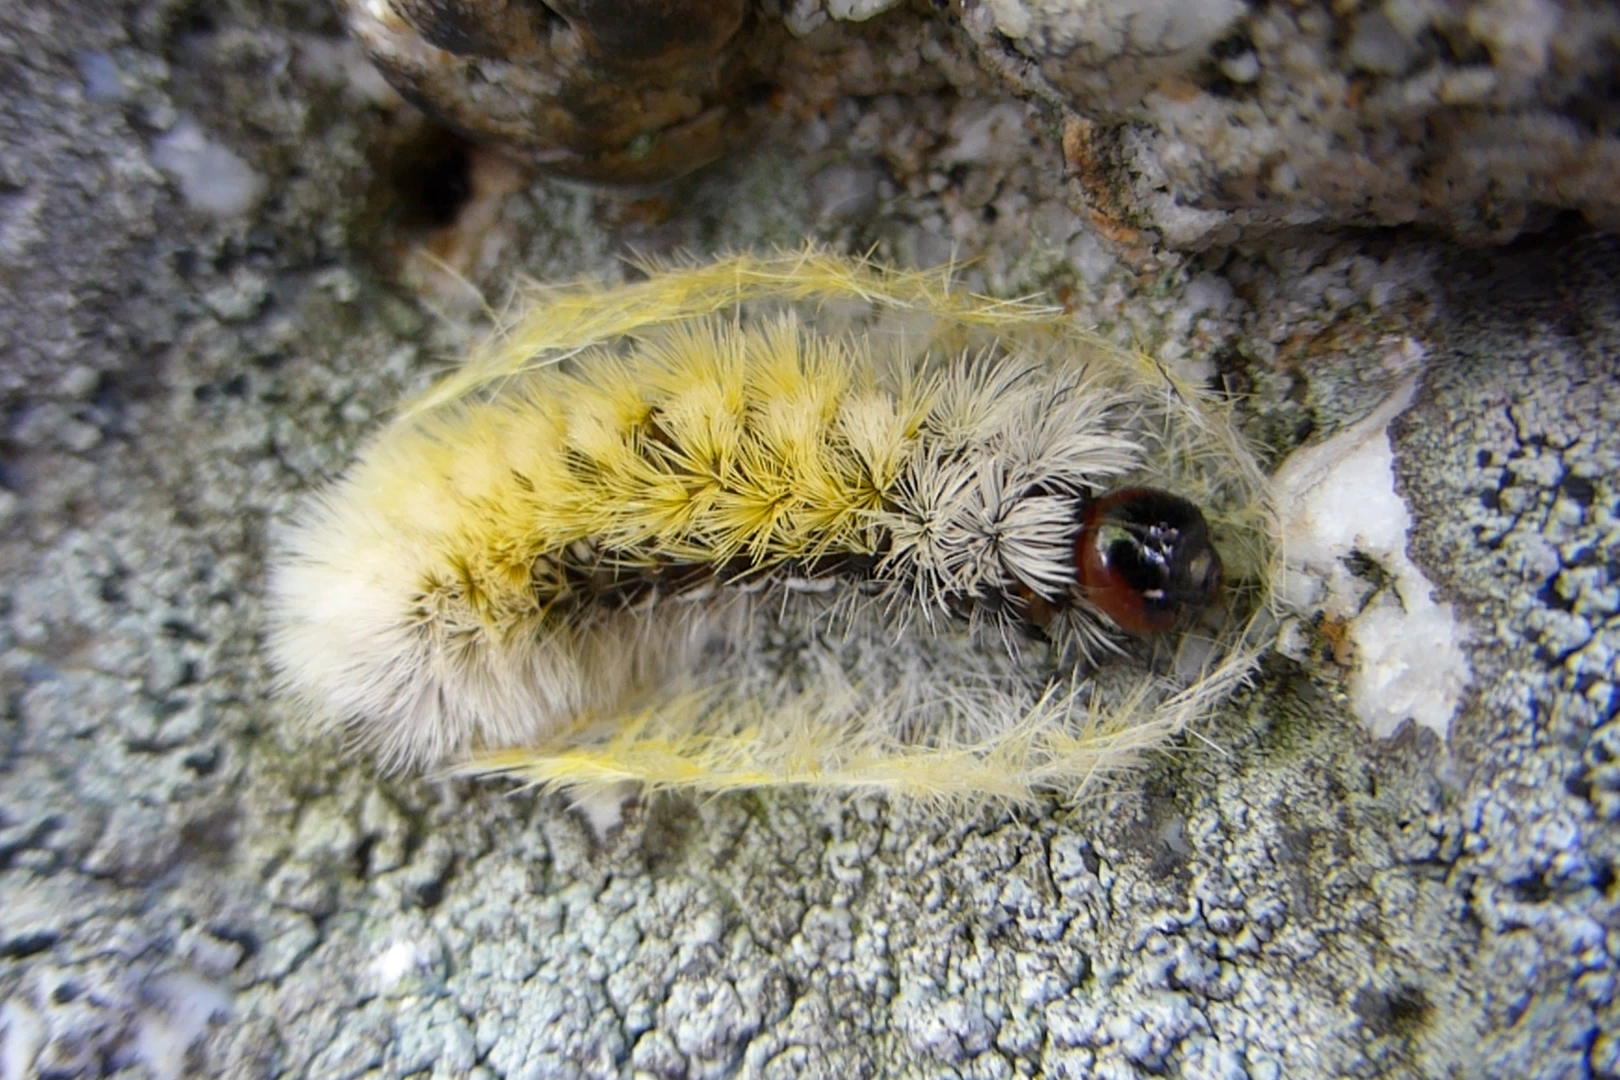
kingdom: Animalia
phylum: Arthropoda
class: Insecta
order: Lepidoptera
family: Erebidae
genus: Ctenucha
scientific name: Ctenucha virginica
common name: Virginia ctenucha moth
